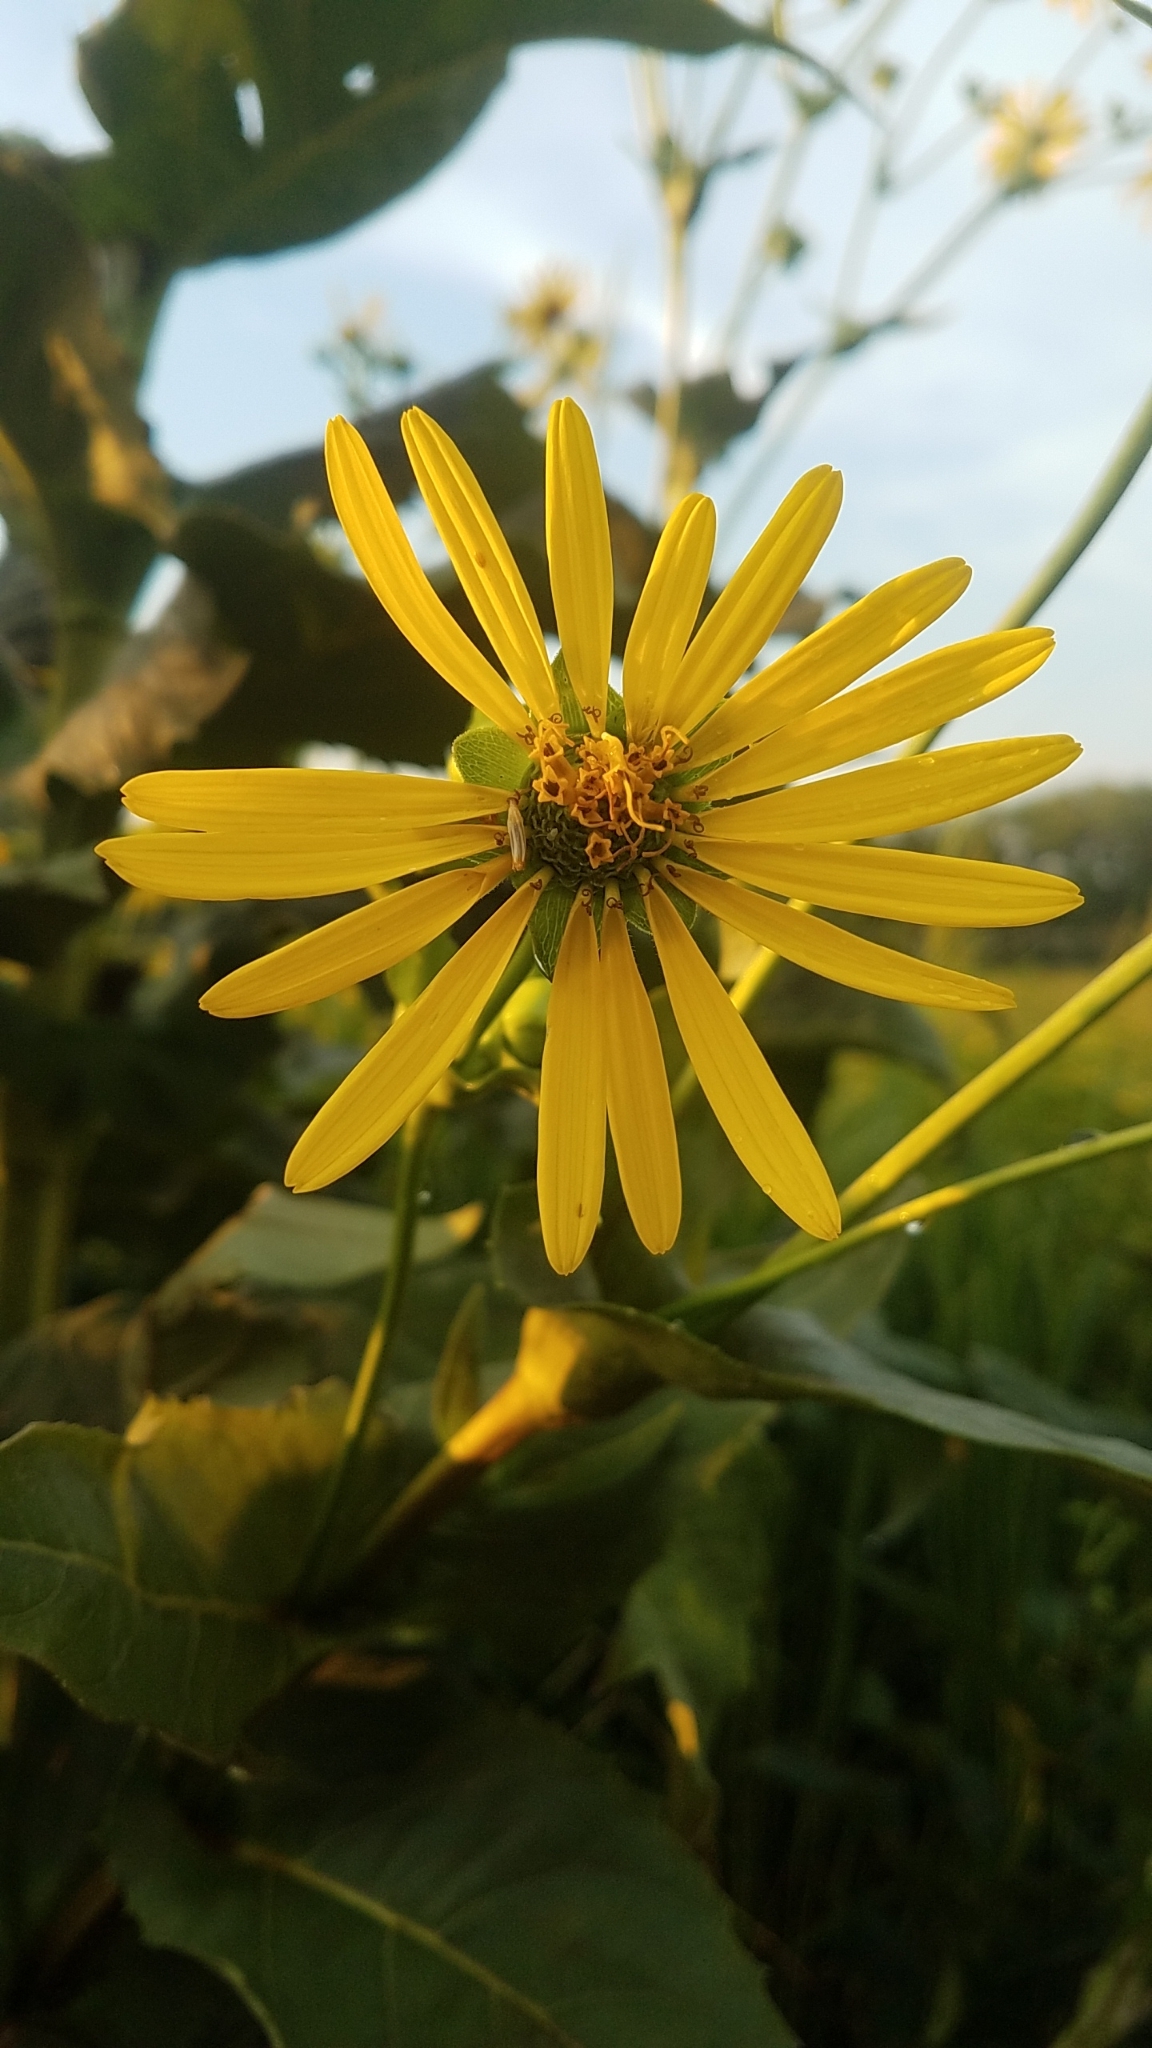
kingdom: Plantae
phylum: Tracheophyta
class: Magnoliopsida
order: Asterales
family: Asteraceae
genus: Silphium
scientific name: Silphium perfoliatum
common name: Cup-plant
